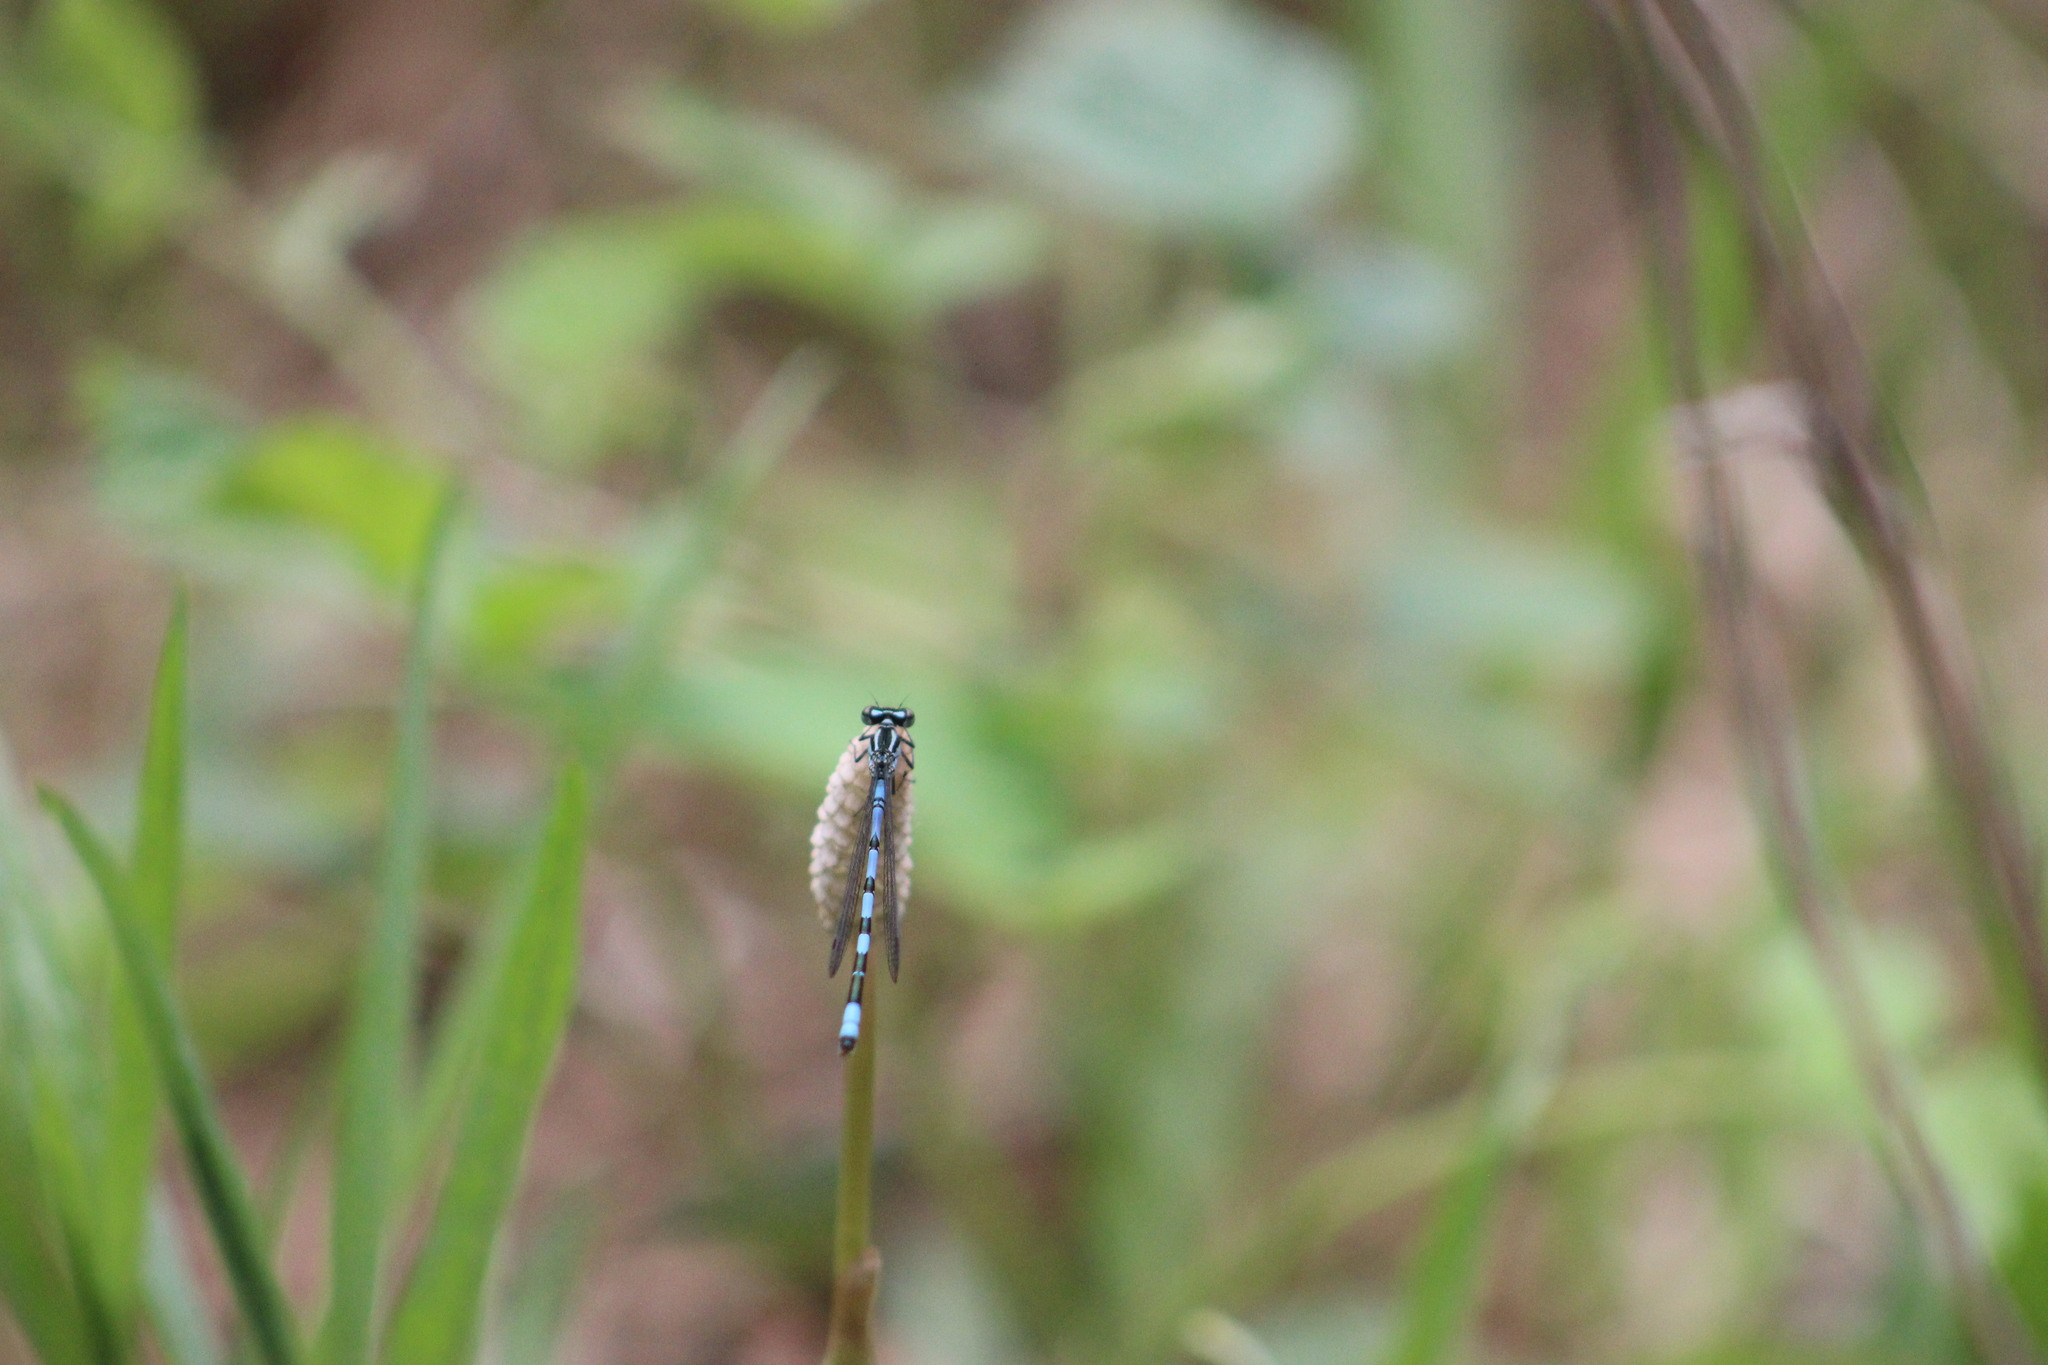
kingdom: Animalia
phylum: Arthropoda
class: Insecta
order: Odonata
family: Coenagrionidae
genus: Coenagrion
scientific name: Coenagrion hastulatum
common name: Spearhead bluet
